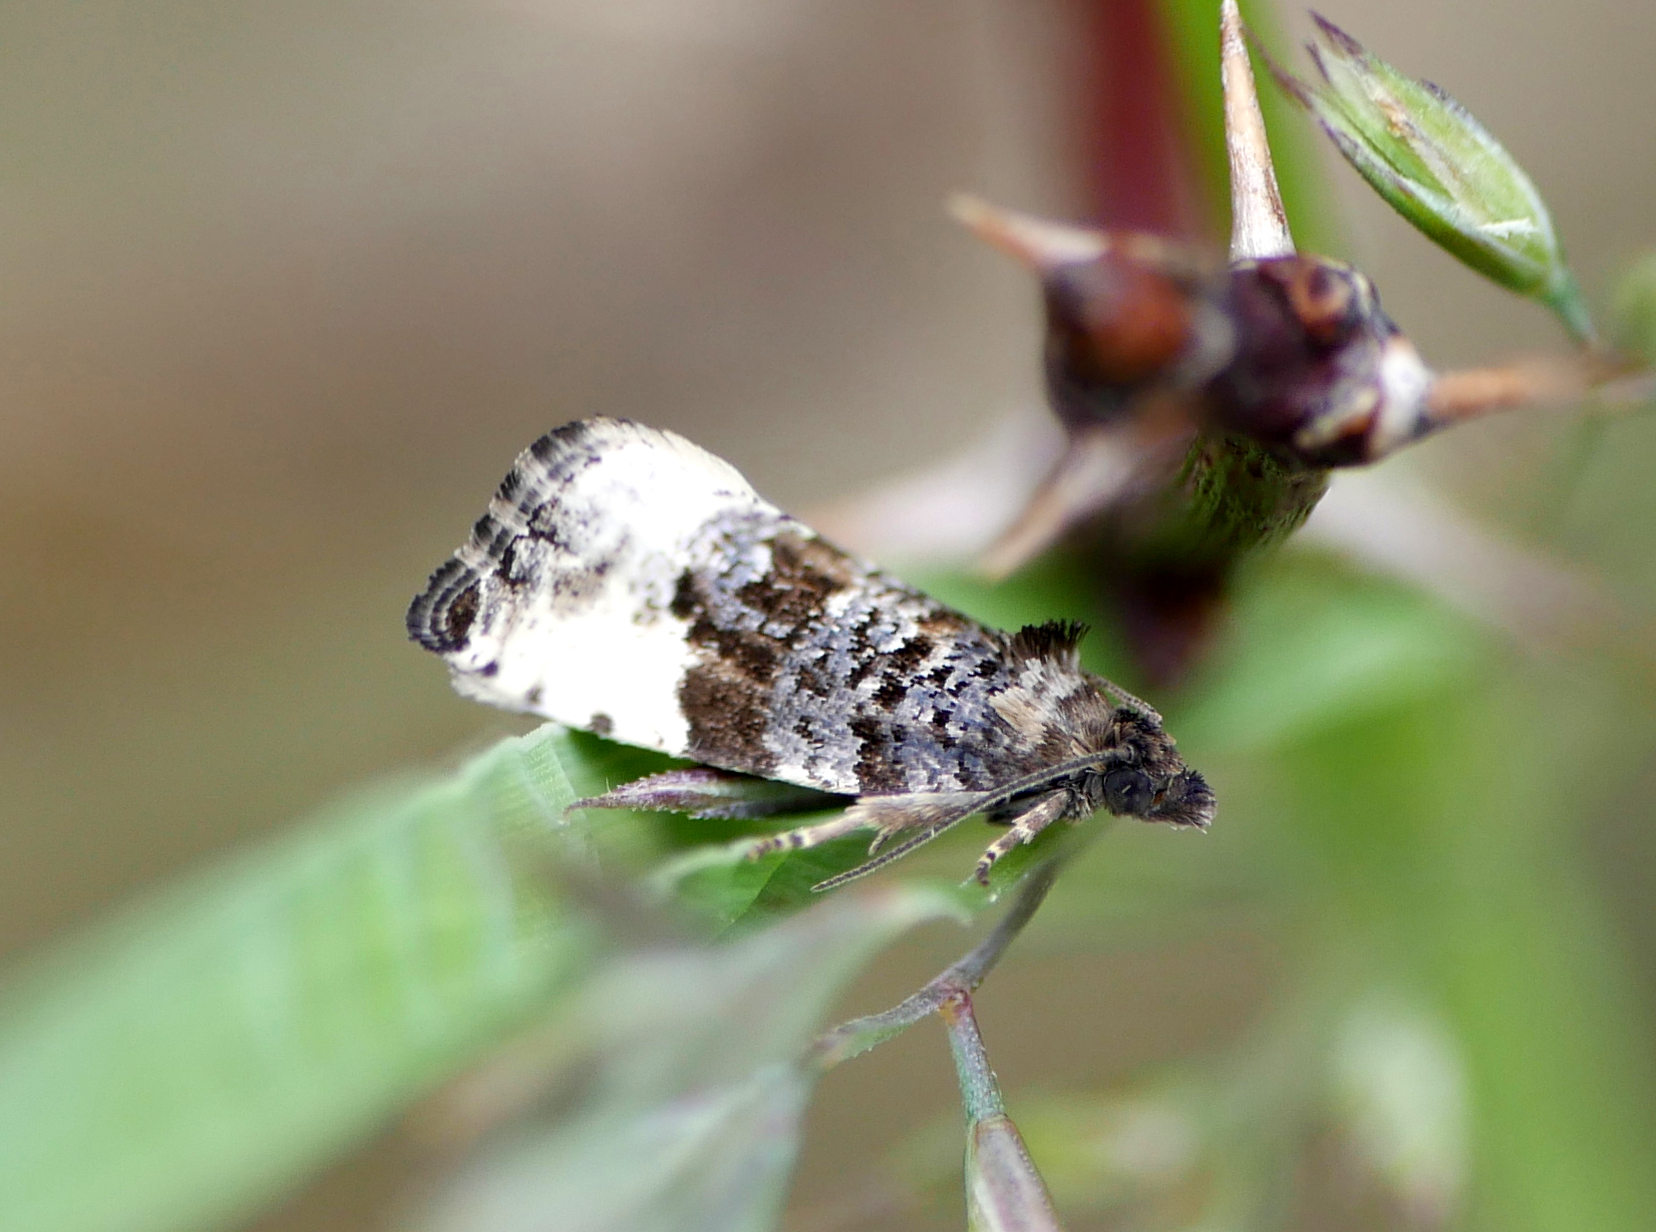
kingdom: Animalia
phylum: Arthropoda
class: Insecta
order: Lepidoptera
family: Tortricidae
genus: Hedya
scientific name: Hedya pruniana
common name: Plum tortrix
